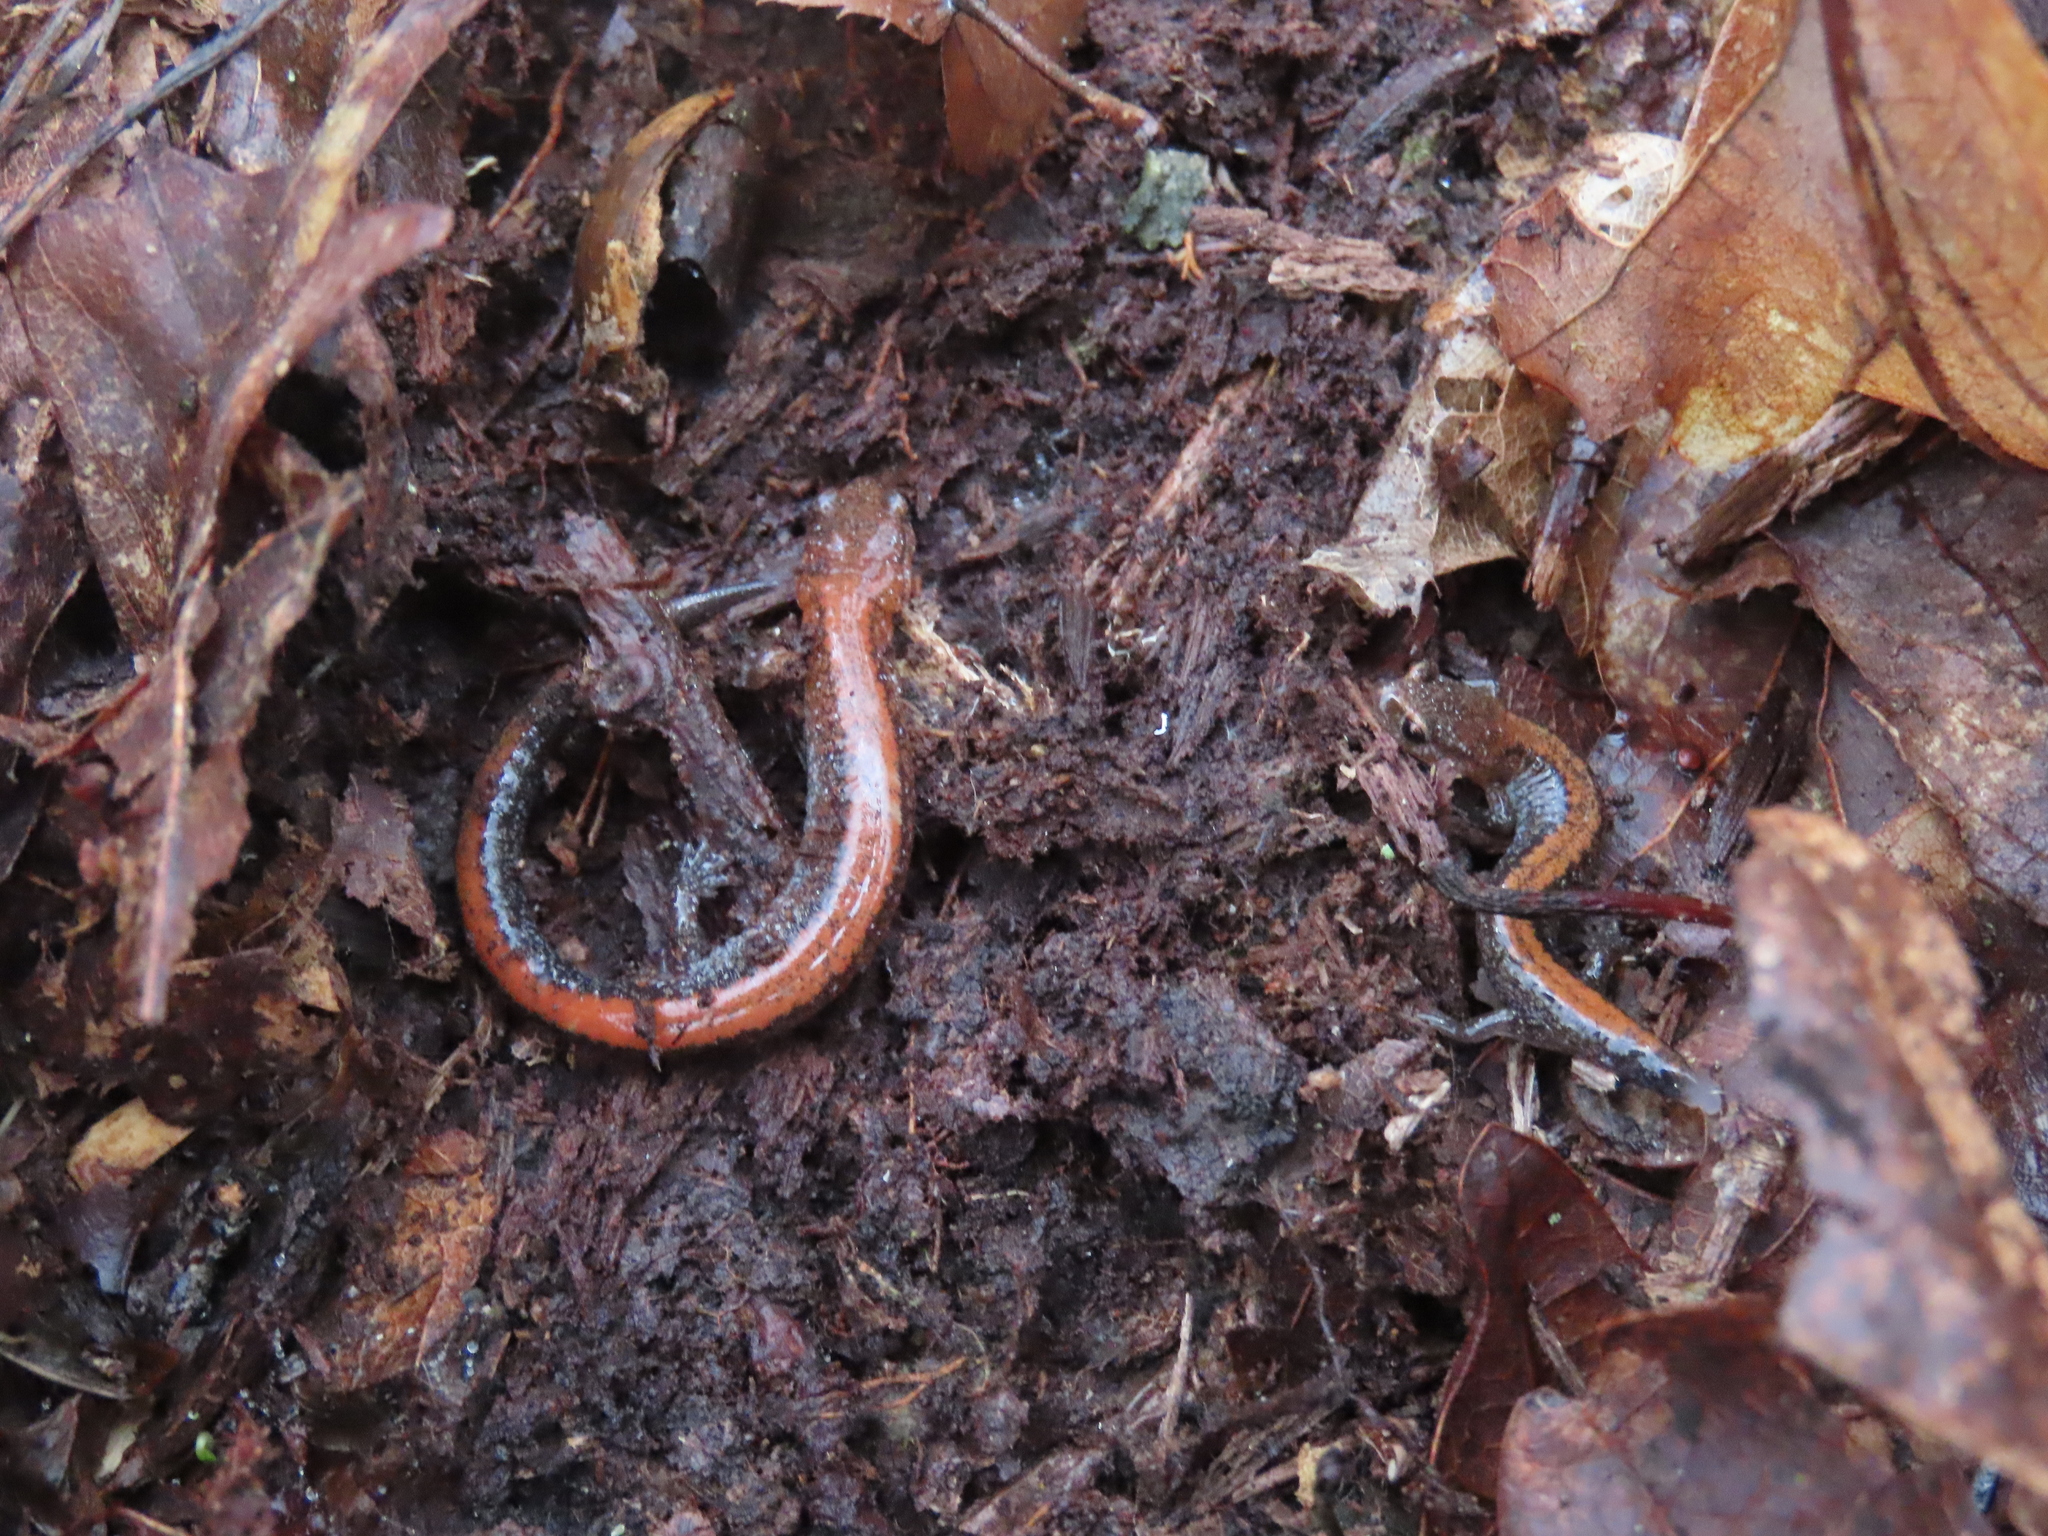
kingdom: Animalia
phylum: Chordata
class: Amphibia
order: Caudata
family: Plethodontidae
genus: Plethodon
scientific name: Plethodon cinereus
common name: Redback salamander
